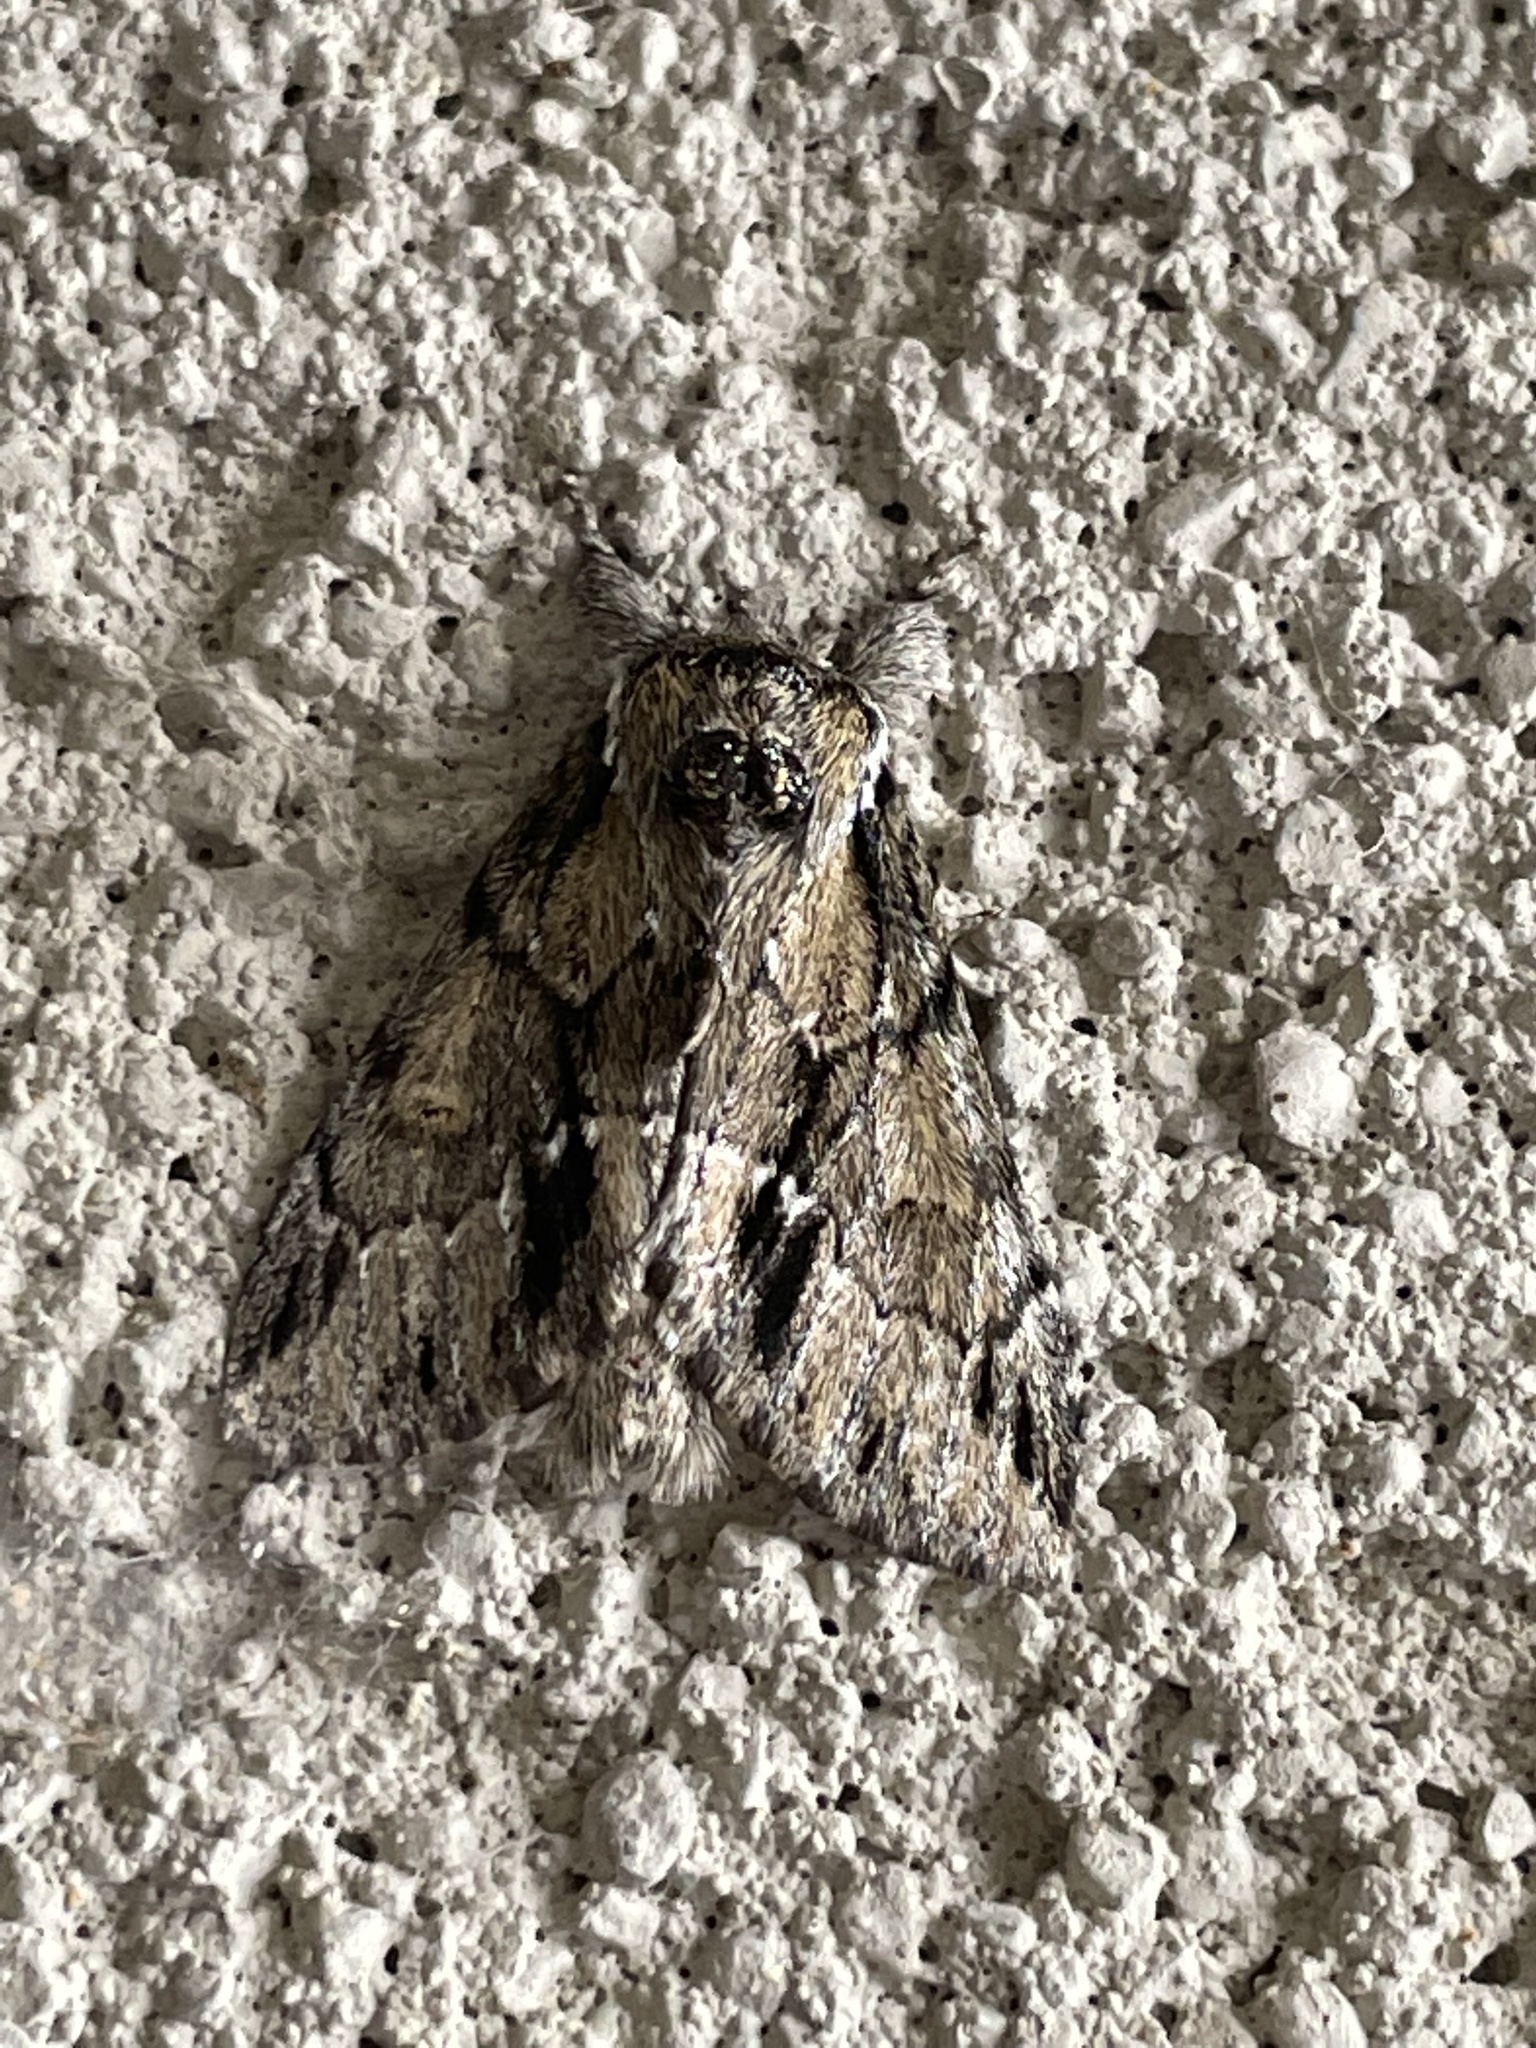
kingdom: Animalia
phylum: Arthropoda
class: Insecta
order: Lepidoptera
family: Notodontidae
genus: Paraeschra
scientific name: Paraeschra georgica
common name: Georgian prominent
